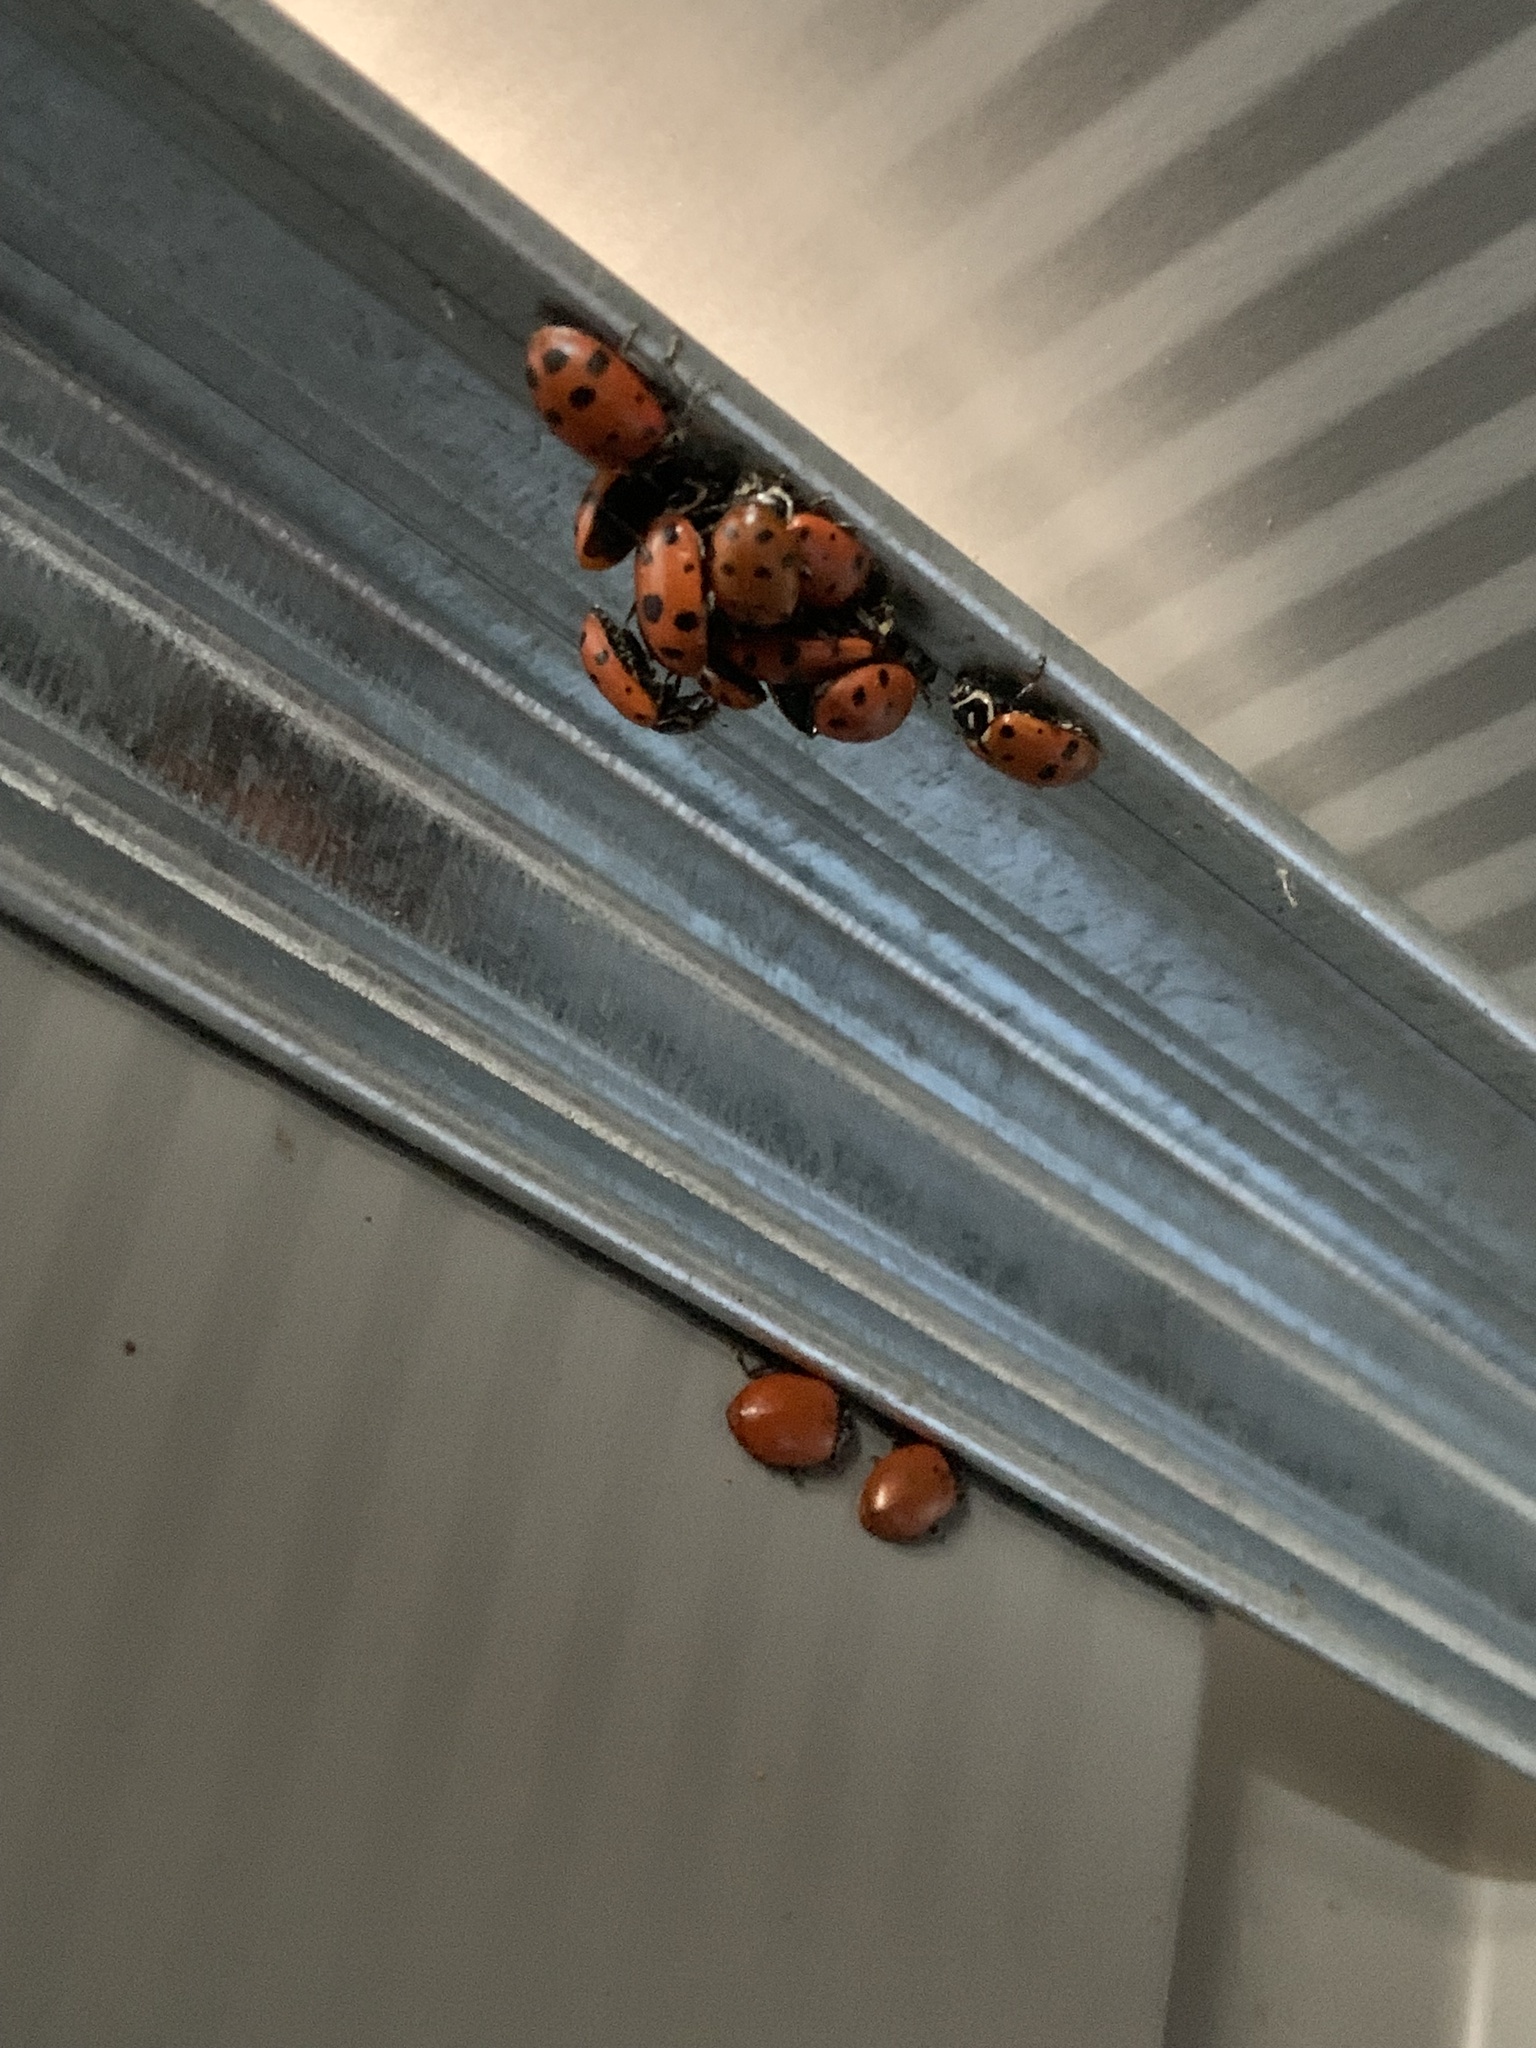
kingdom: Animalia
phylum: Arthropoda
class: Insecta
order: Coleoptera
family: Coccinellidae
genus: Hippodamia
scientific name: Hippodamia convergens
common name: Convergent lady beetle
